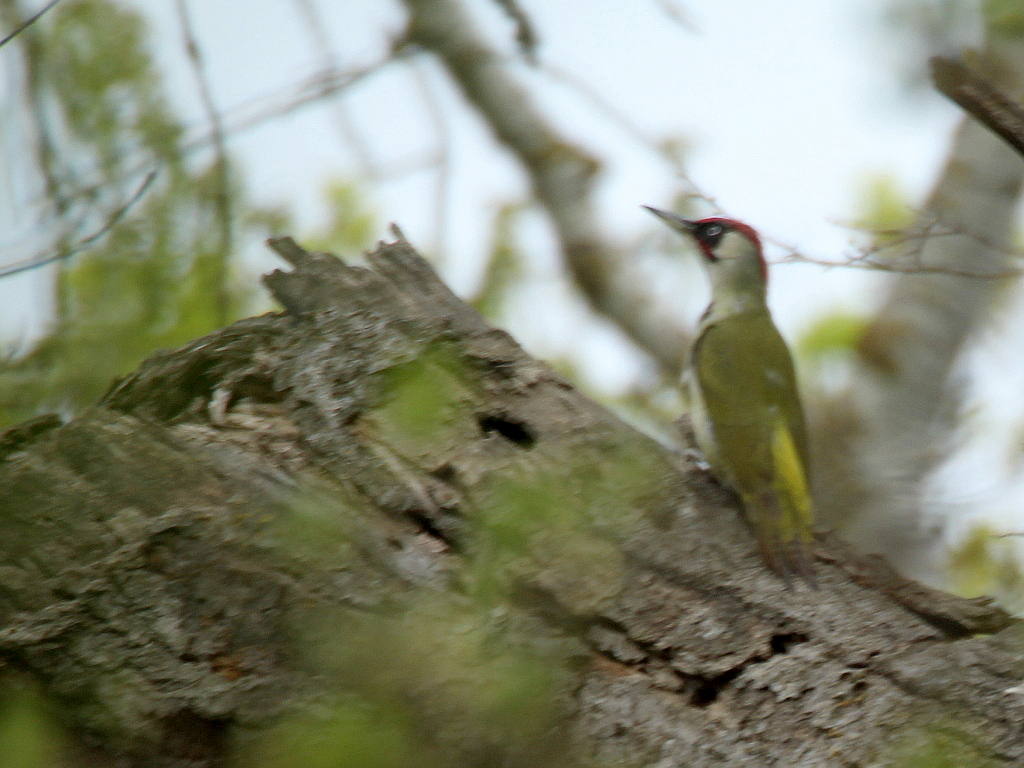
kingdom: Animalia
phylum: Chordata
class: Aves
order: Piciformes
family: Picidae
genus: Picus
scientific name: Picus viridis
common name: European green woodpecker
